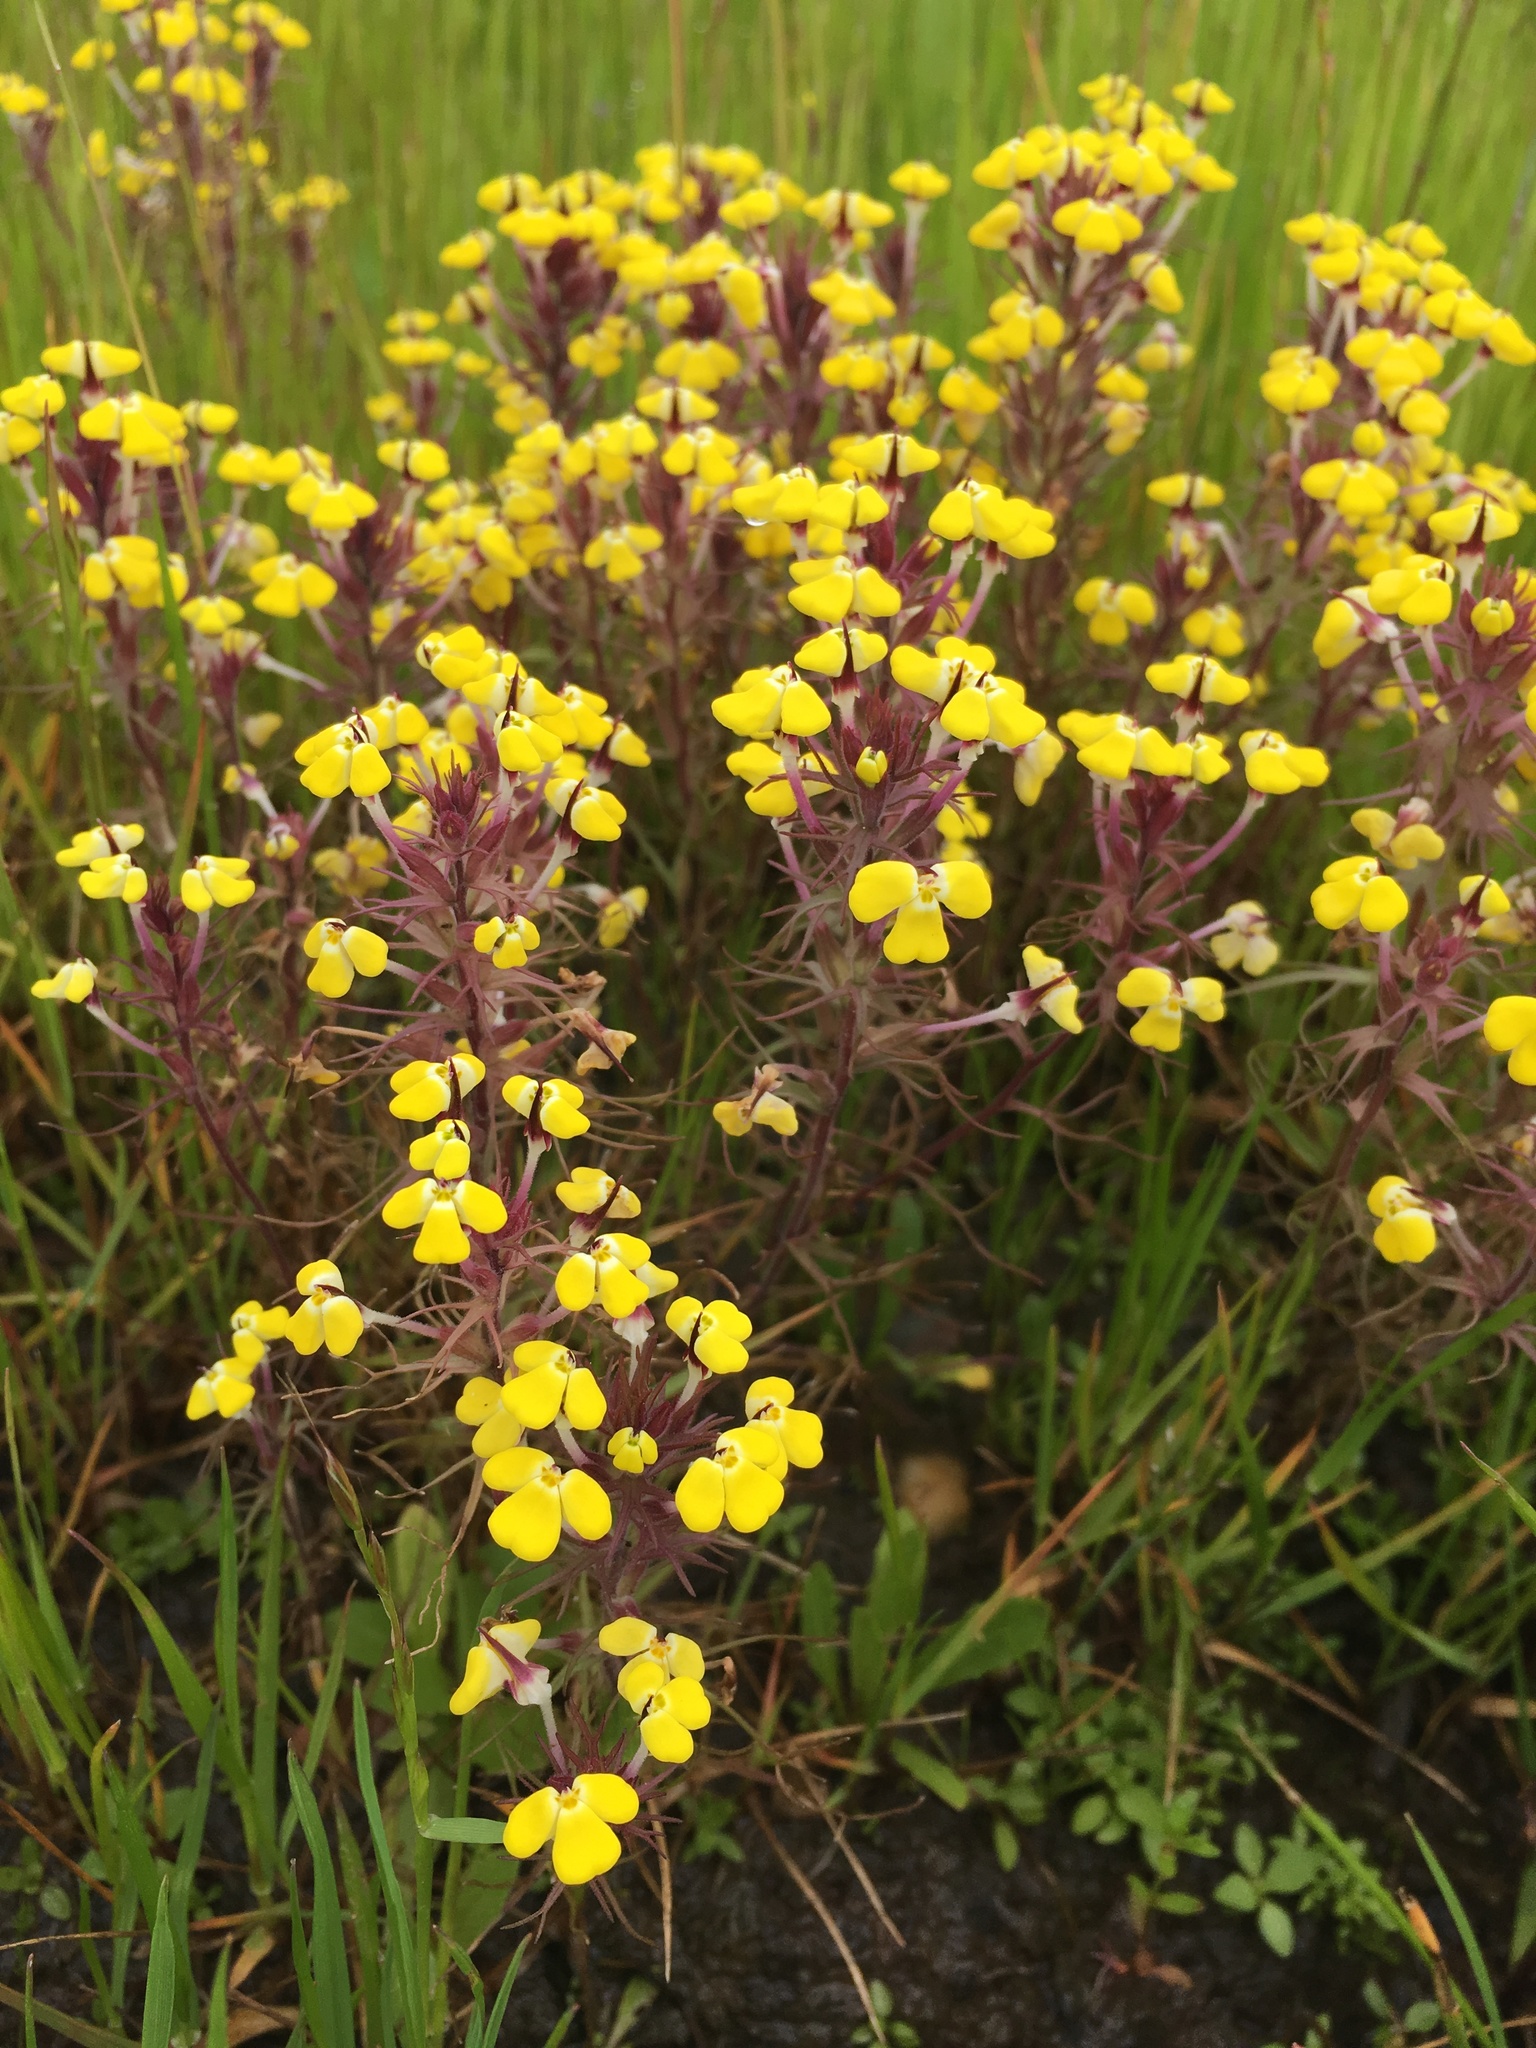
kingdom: Plantae
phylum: Tracheophyta
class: Magnoliopsida
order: Lamiales
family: Orobanchaceae
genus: Triphysaria
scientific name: Triphysaria eriantha
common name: Johnny-tuck
